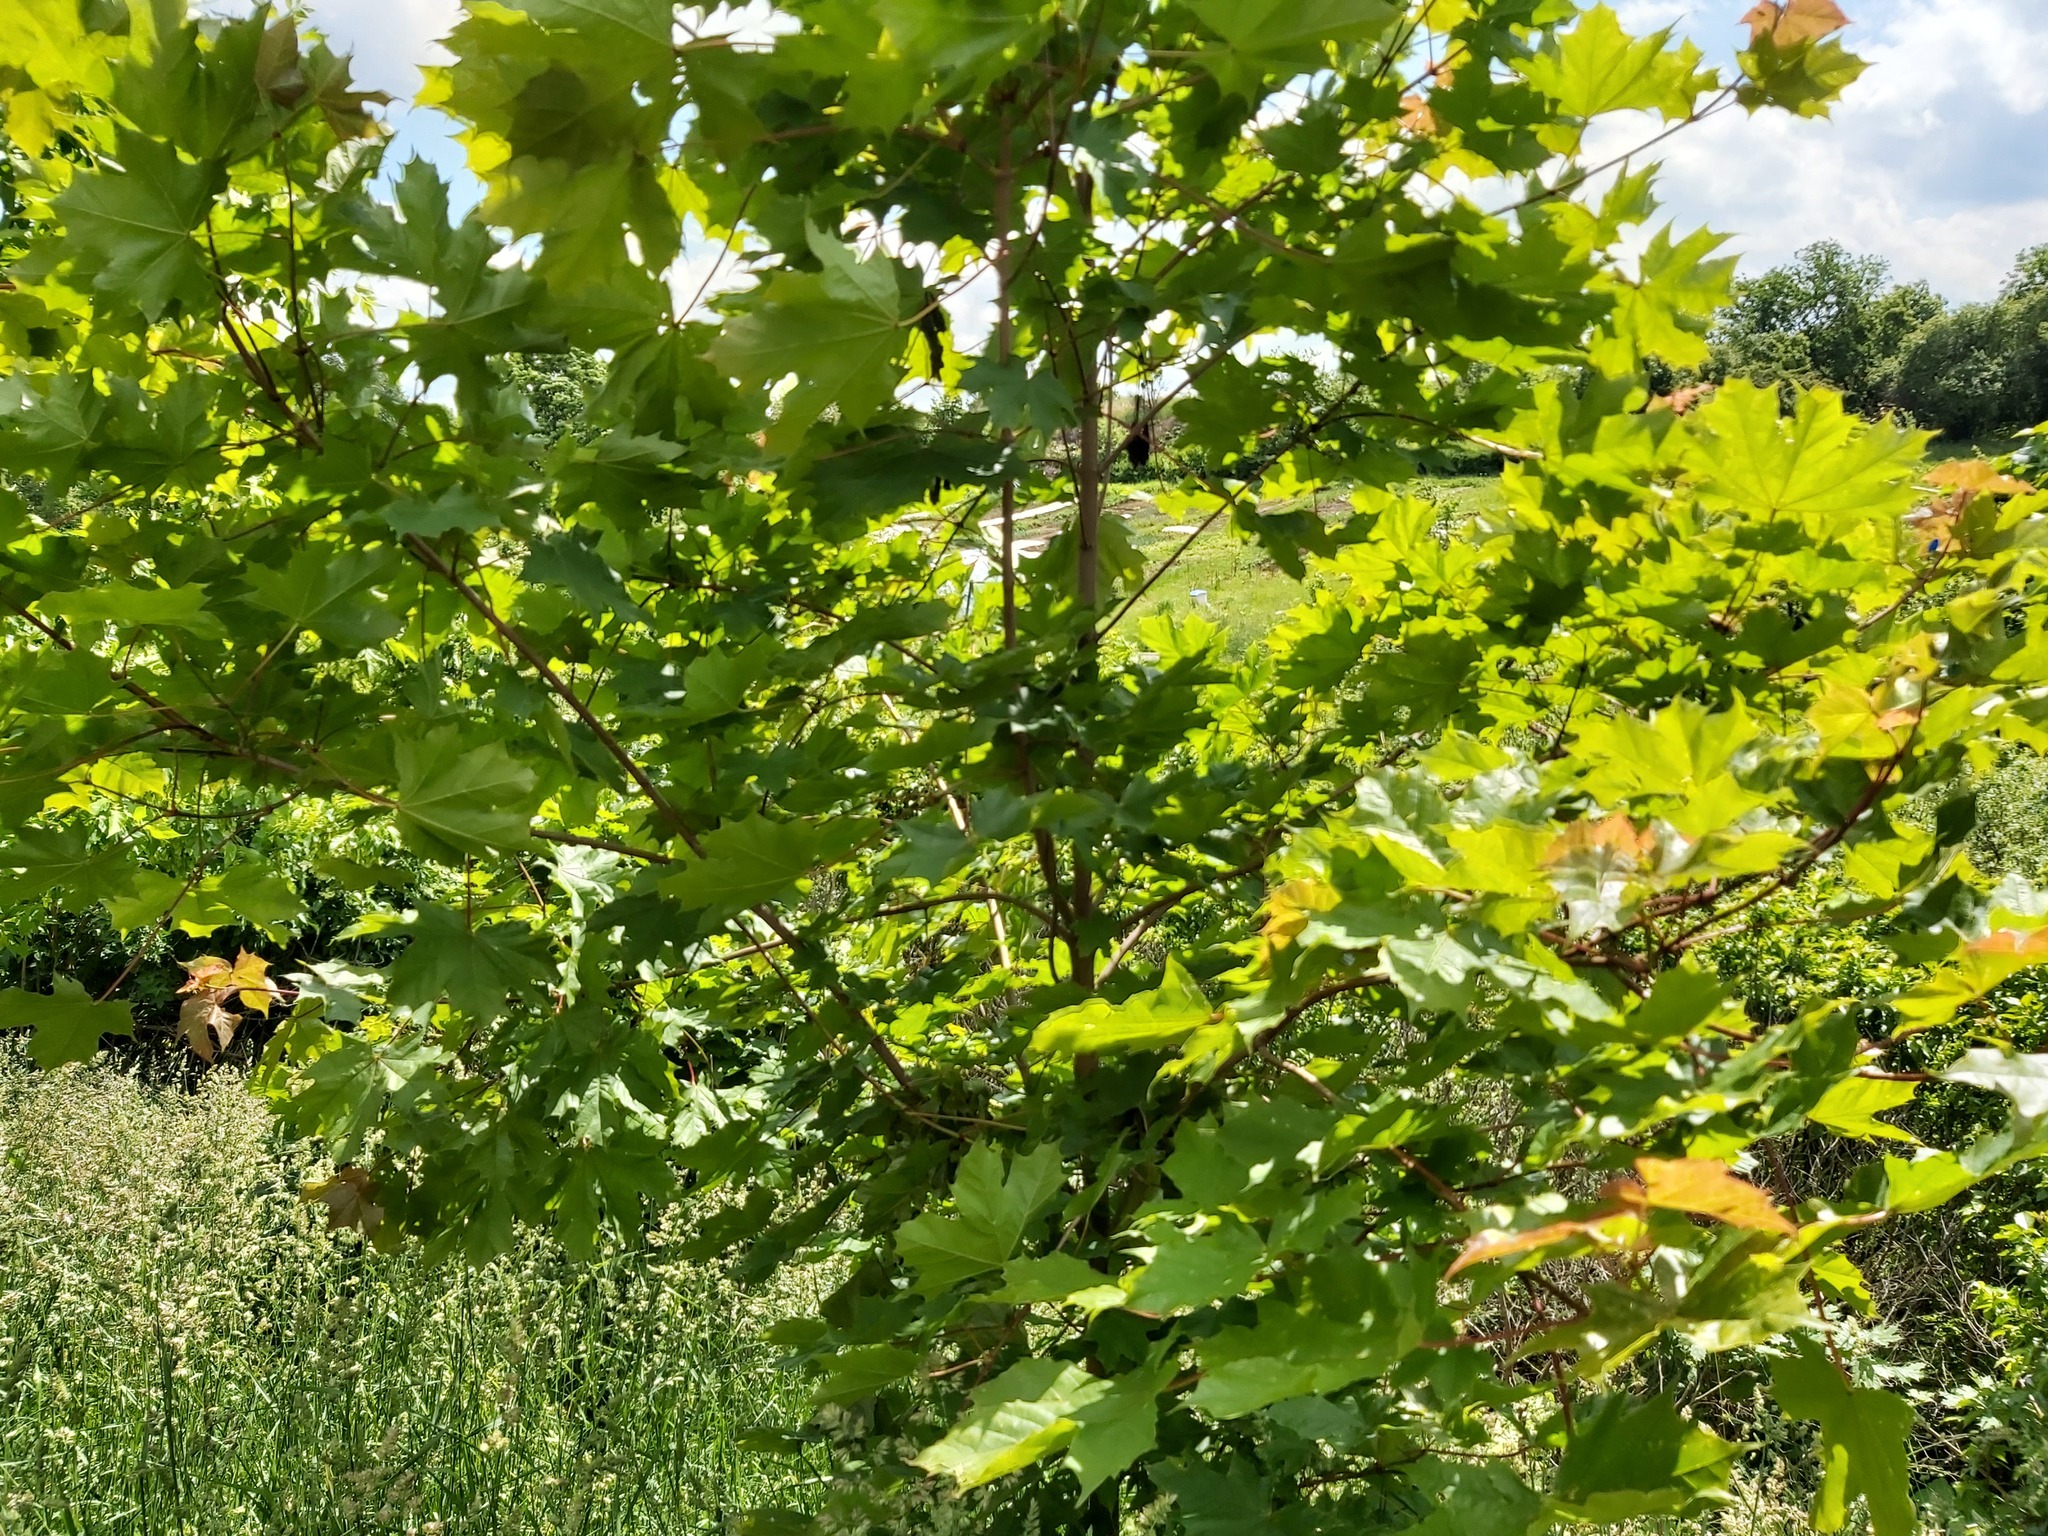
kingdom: Plantae
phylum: Tracheophyta
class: Magnoliopsida
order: Sapindales
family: Sapindaceae
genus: Acer
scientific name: Acer platanoides
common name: Norway maple
